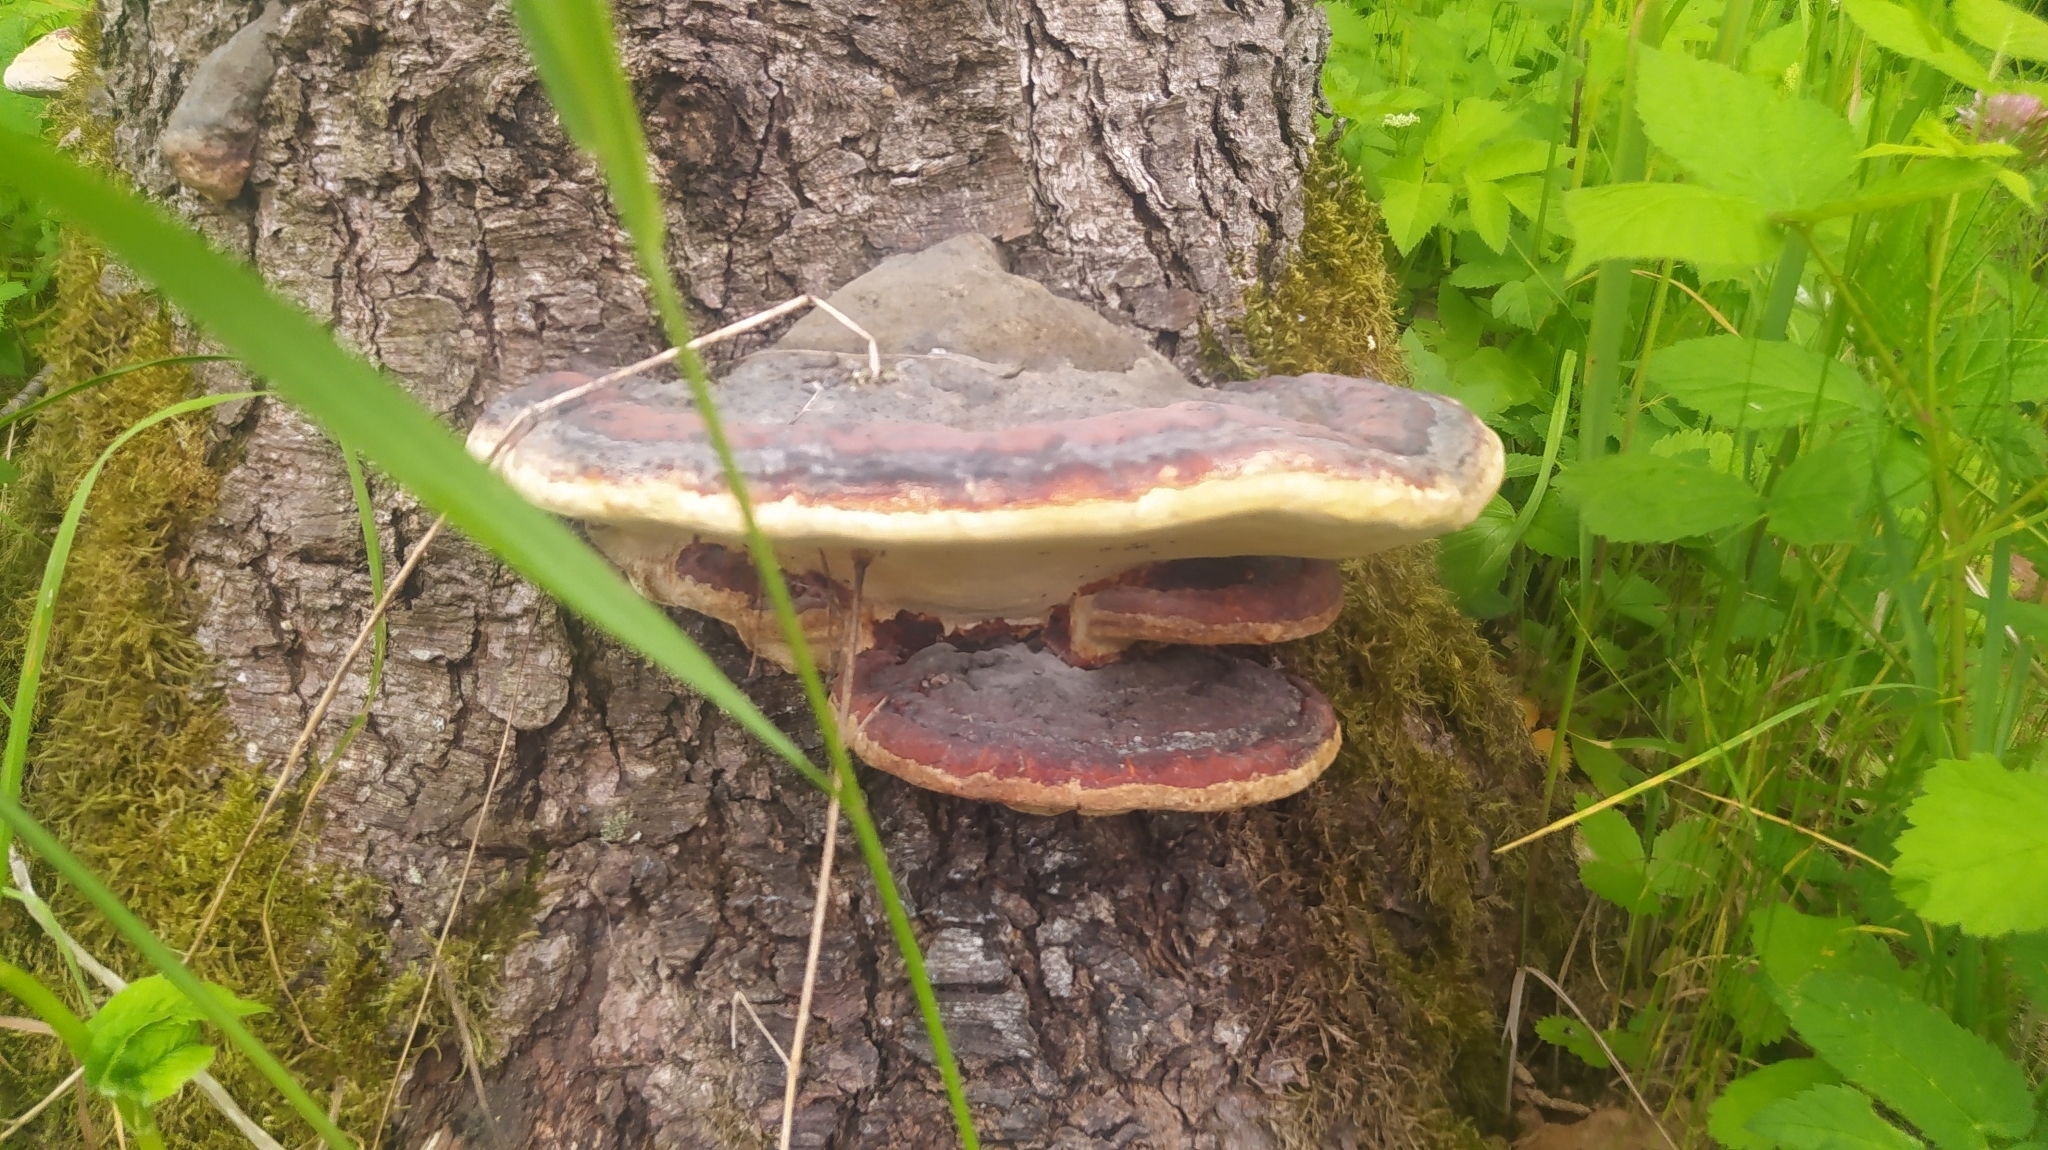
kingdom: Fungi
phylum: Basidiomycota
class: Agaricomycetes
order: Polyporales
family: Fomitopsidaceae
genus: Fomitopsis
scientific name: Fomitopsis pinicola
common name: Red-belted bracket
